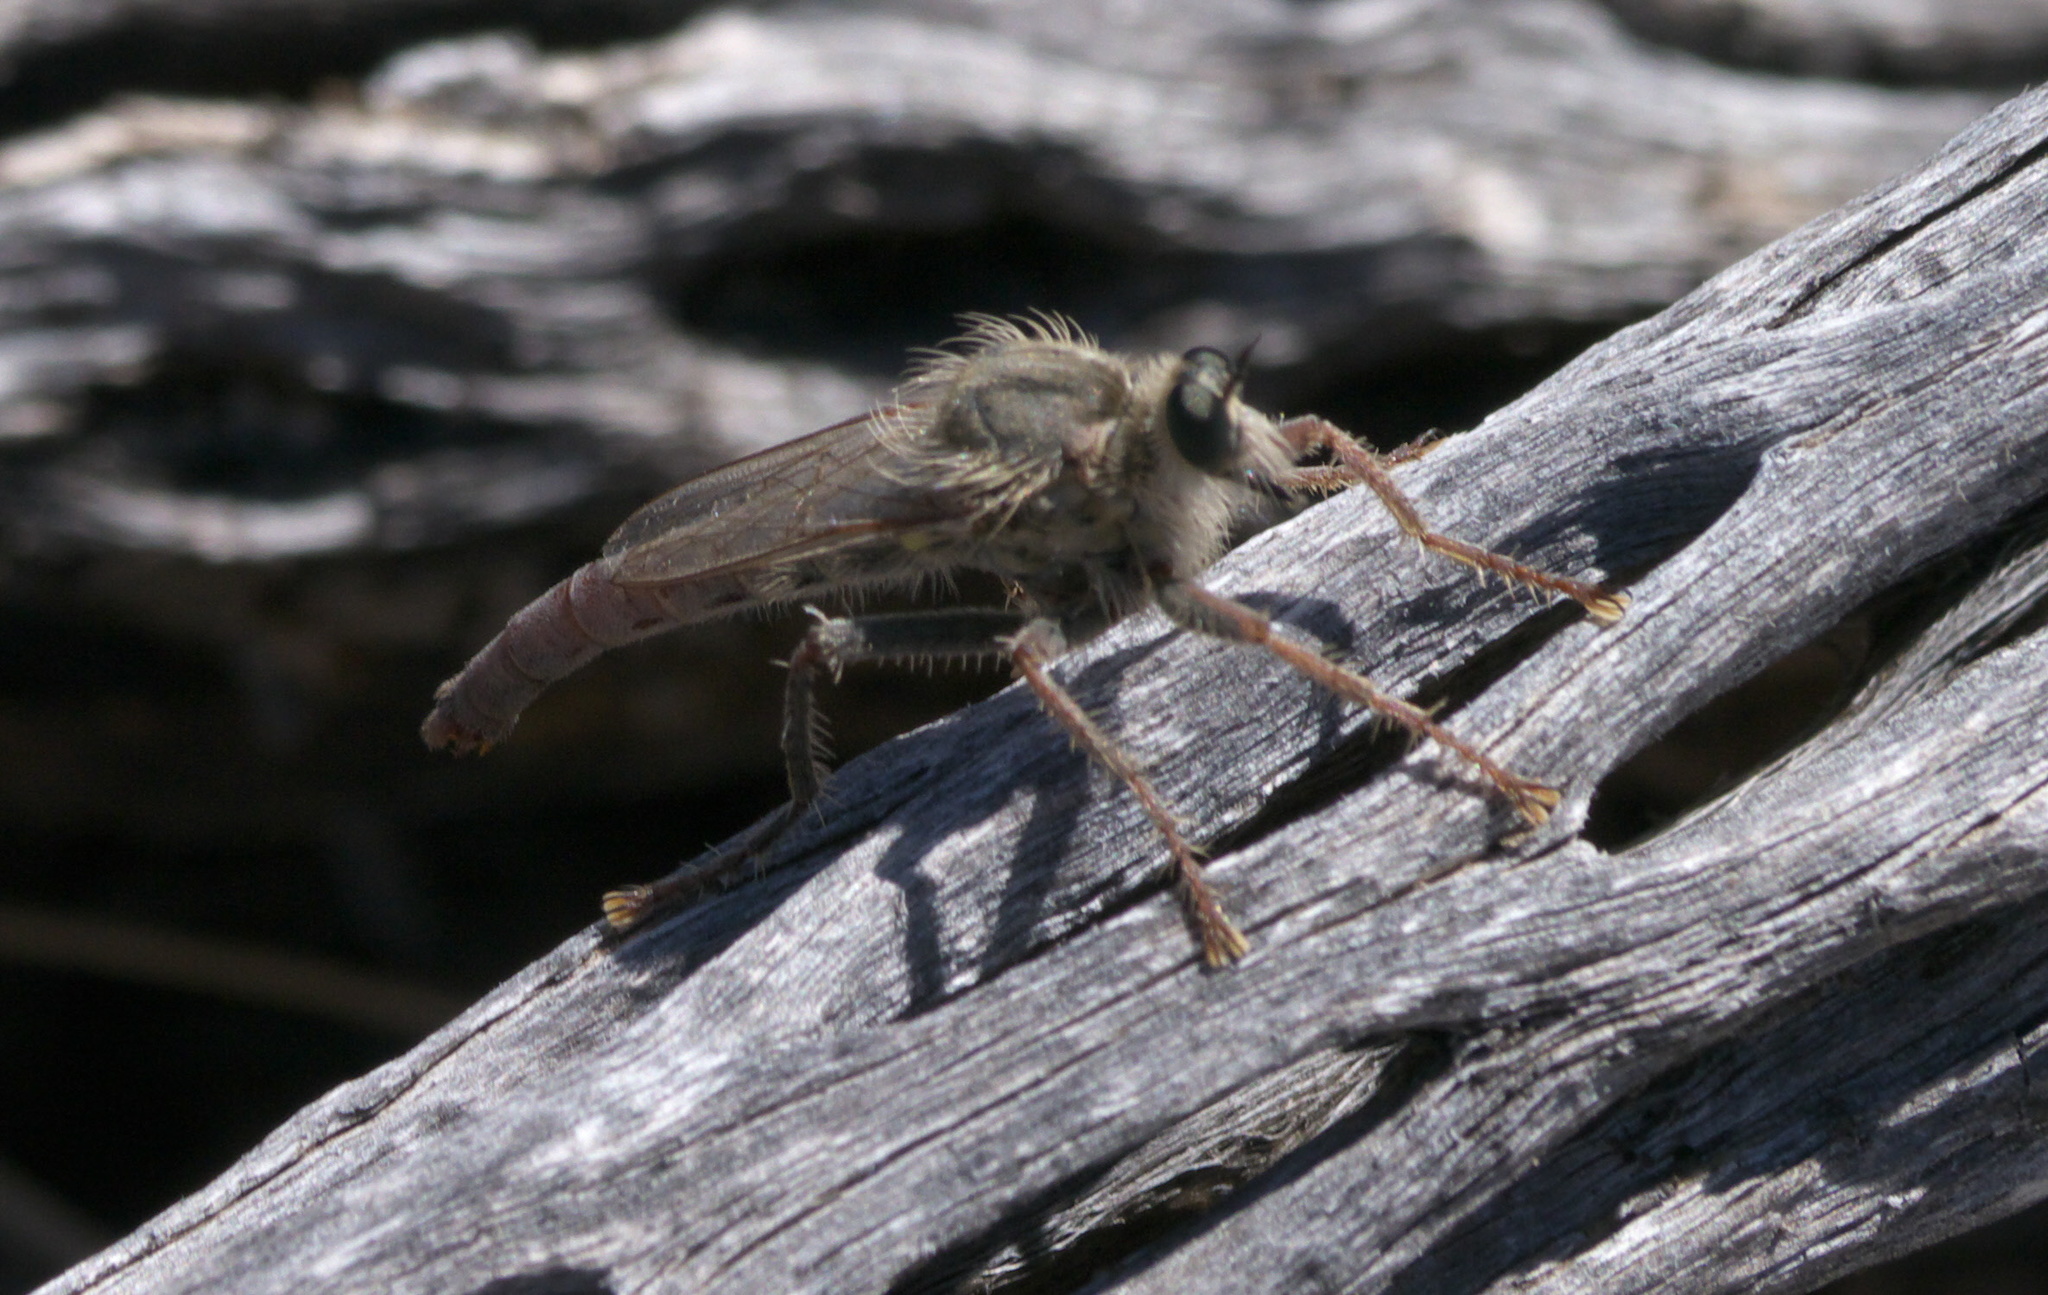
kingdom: Animalia
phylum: Arthropoda
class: Insecta
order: Diptera
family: Asilidae
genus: Scleropogon
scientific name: Scleropogon picticornis
